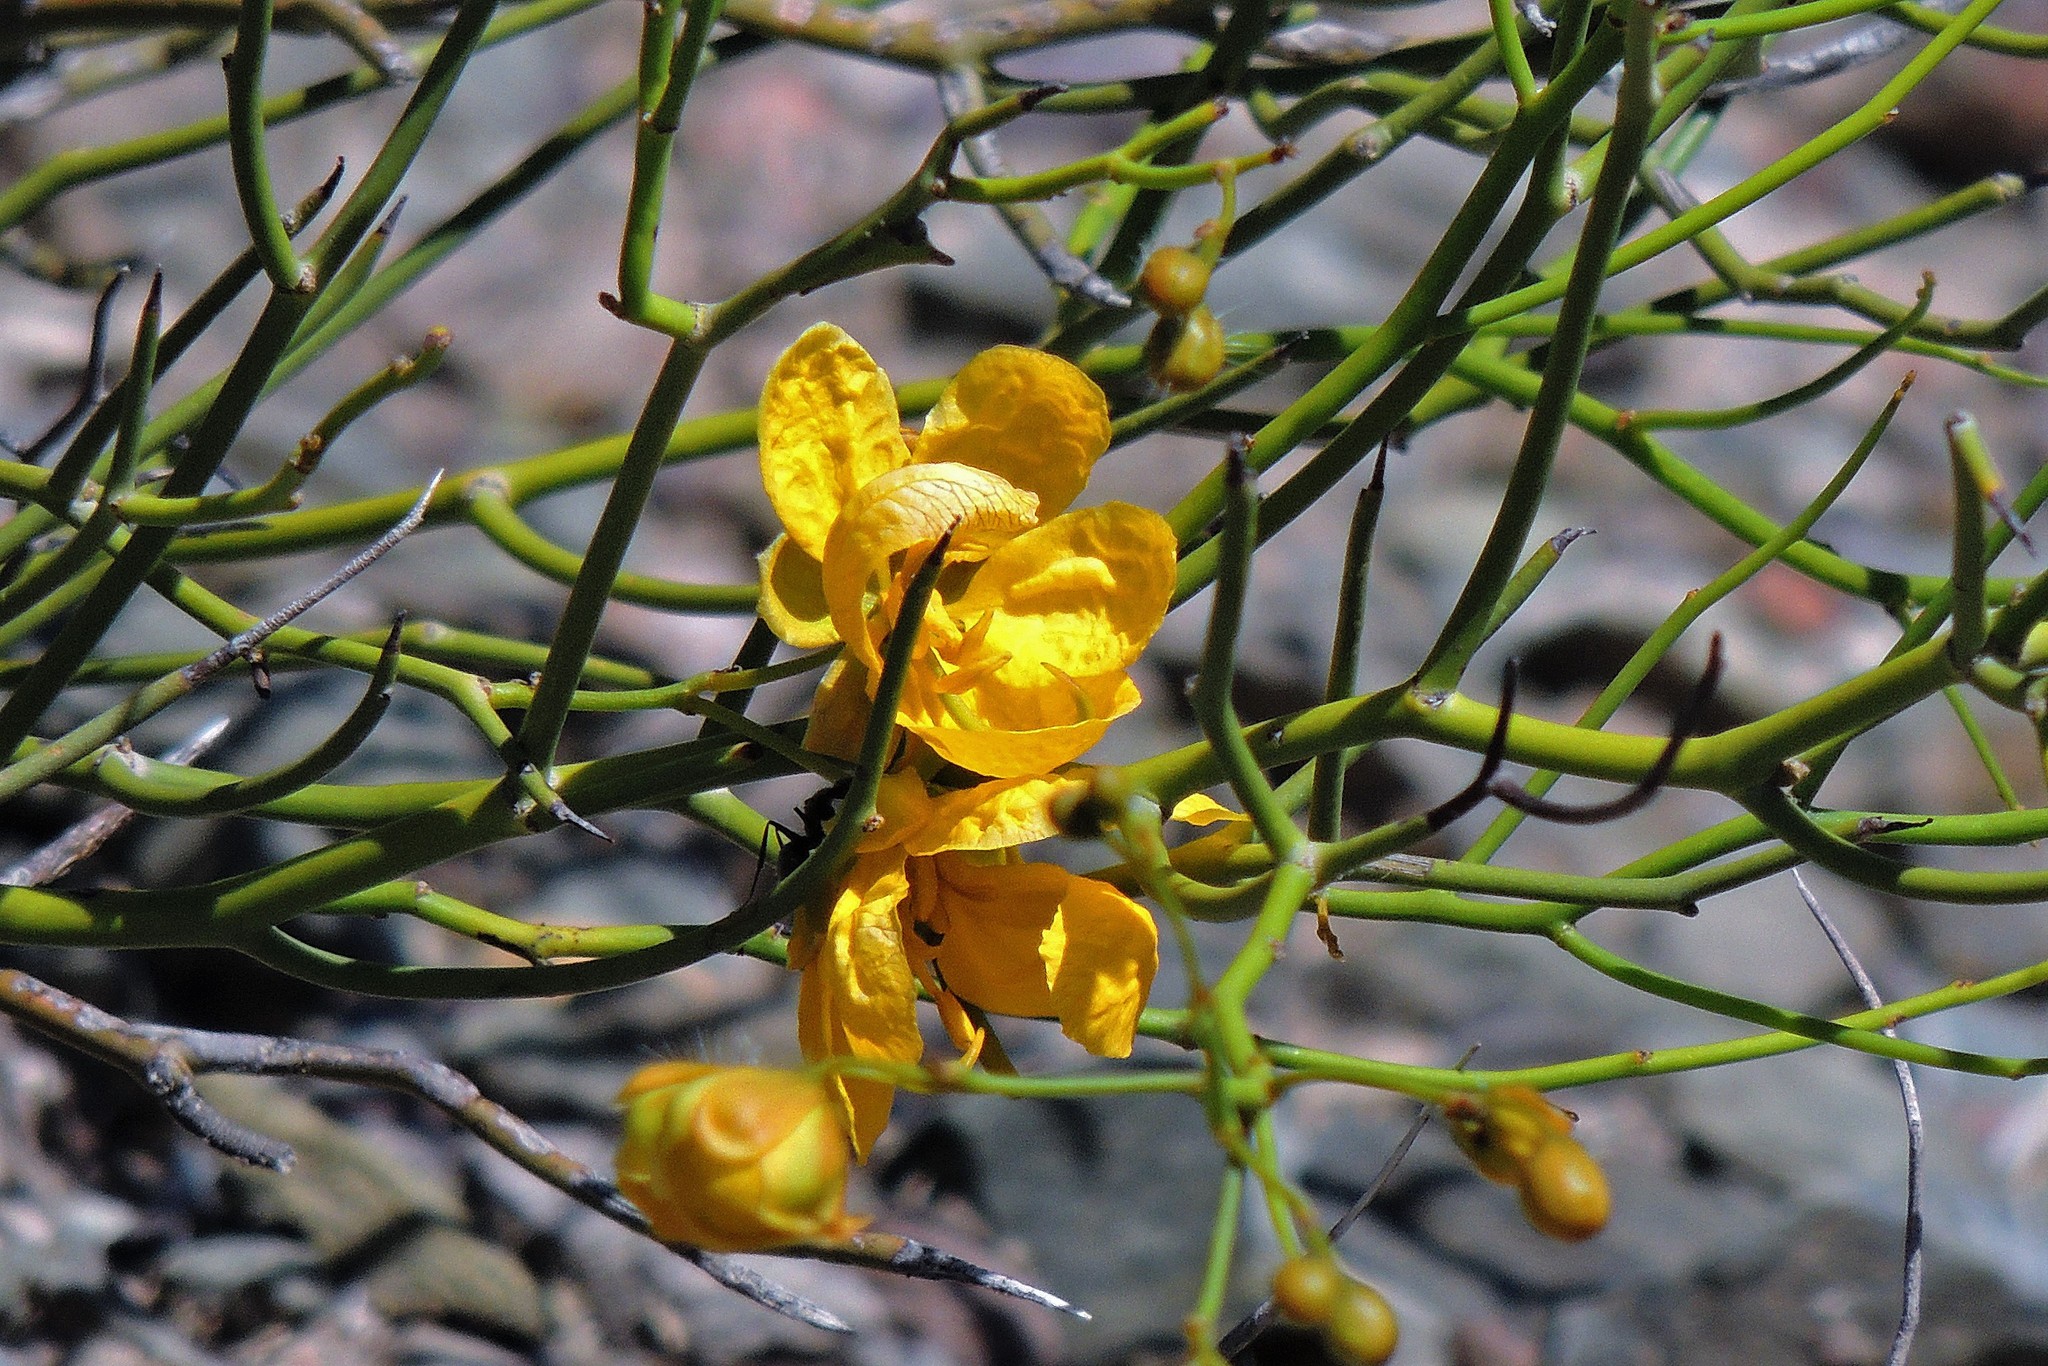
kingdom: Plantae
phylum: Tracheophyta
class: Magnoliopsida
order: Fabales
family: Fabaceae
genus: Senna
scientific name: Senna aphylla
